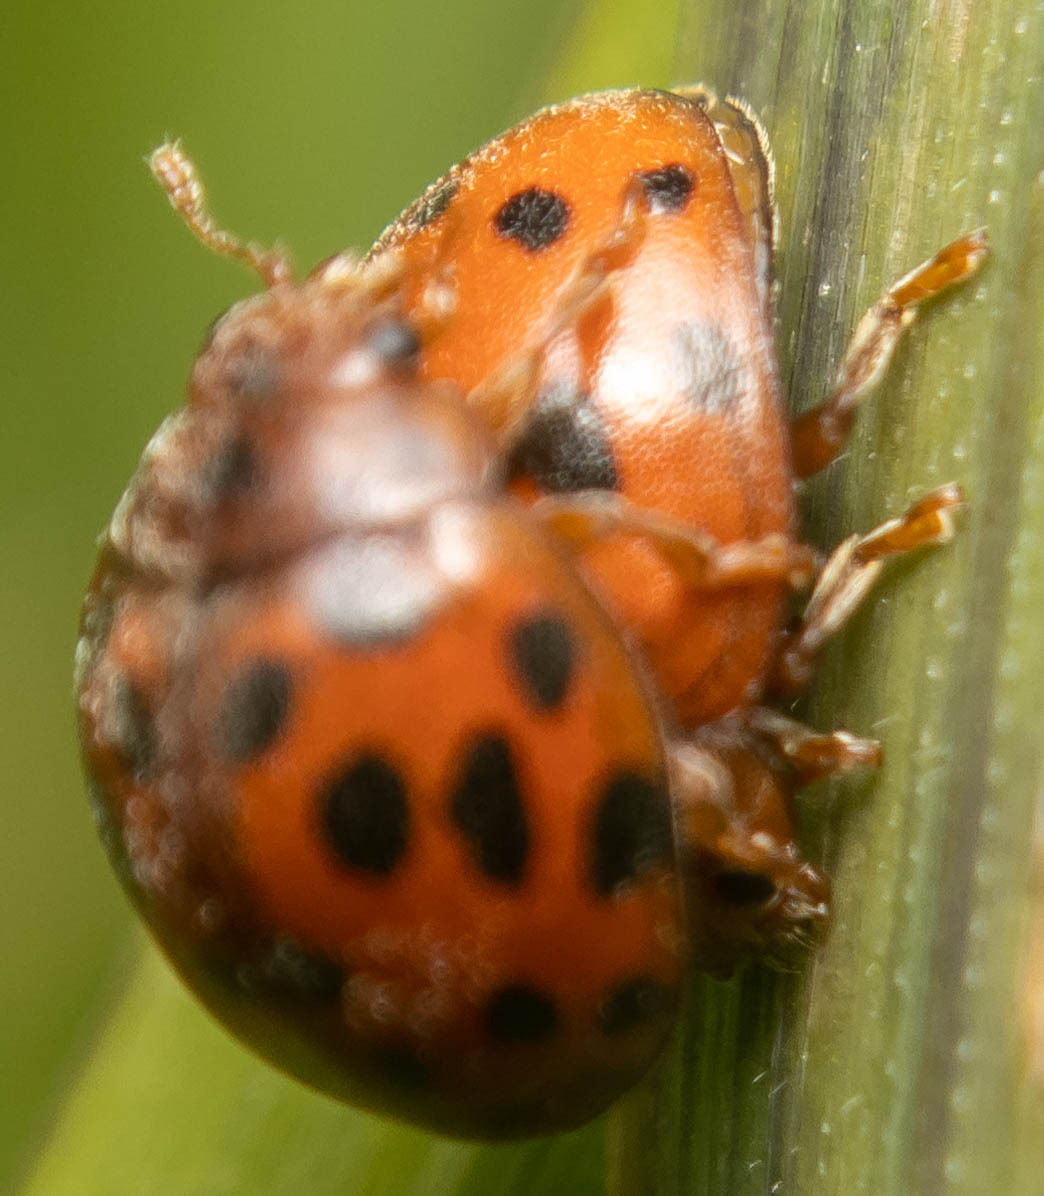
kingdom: Animalia
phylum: Arthropoda
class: Insecta
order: Coleoptera
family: Coccinellidae
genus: Subcoccinella
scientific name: Subcoccinella vigintiquatuorpunctata
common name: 24-spot ladybird
